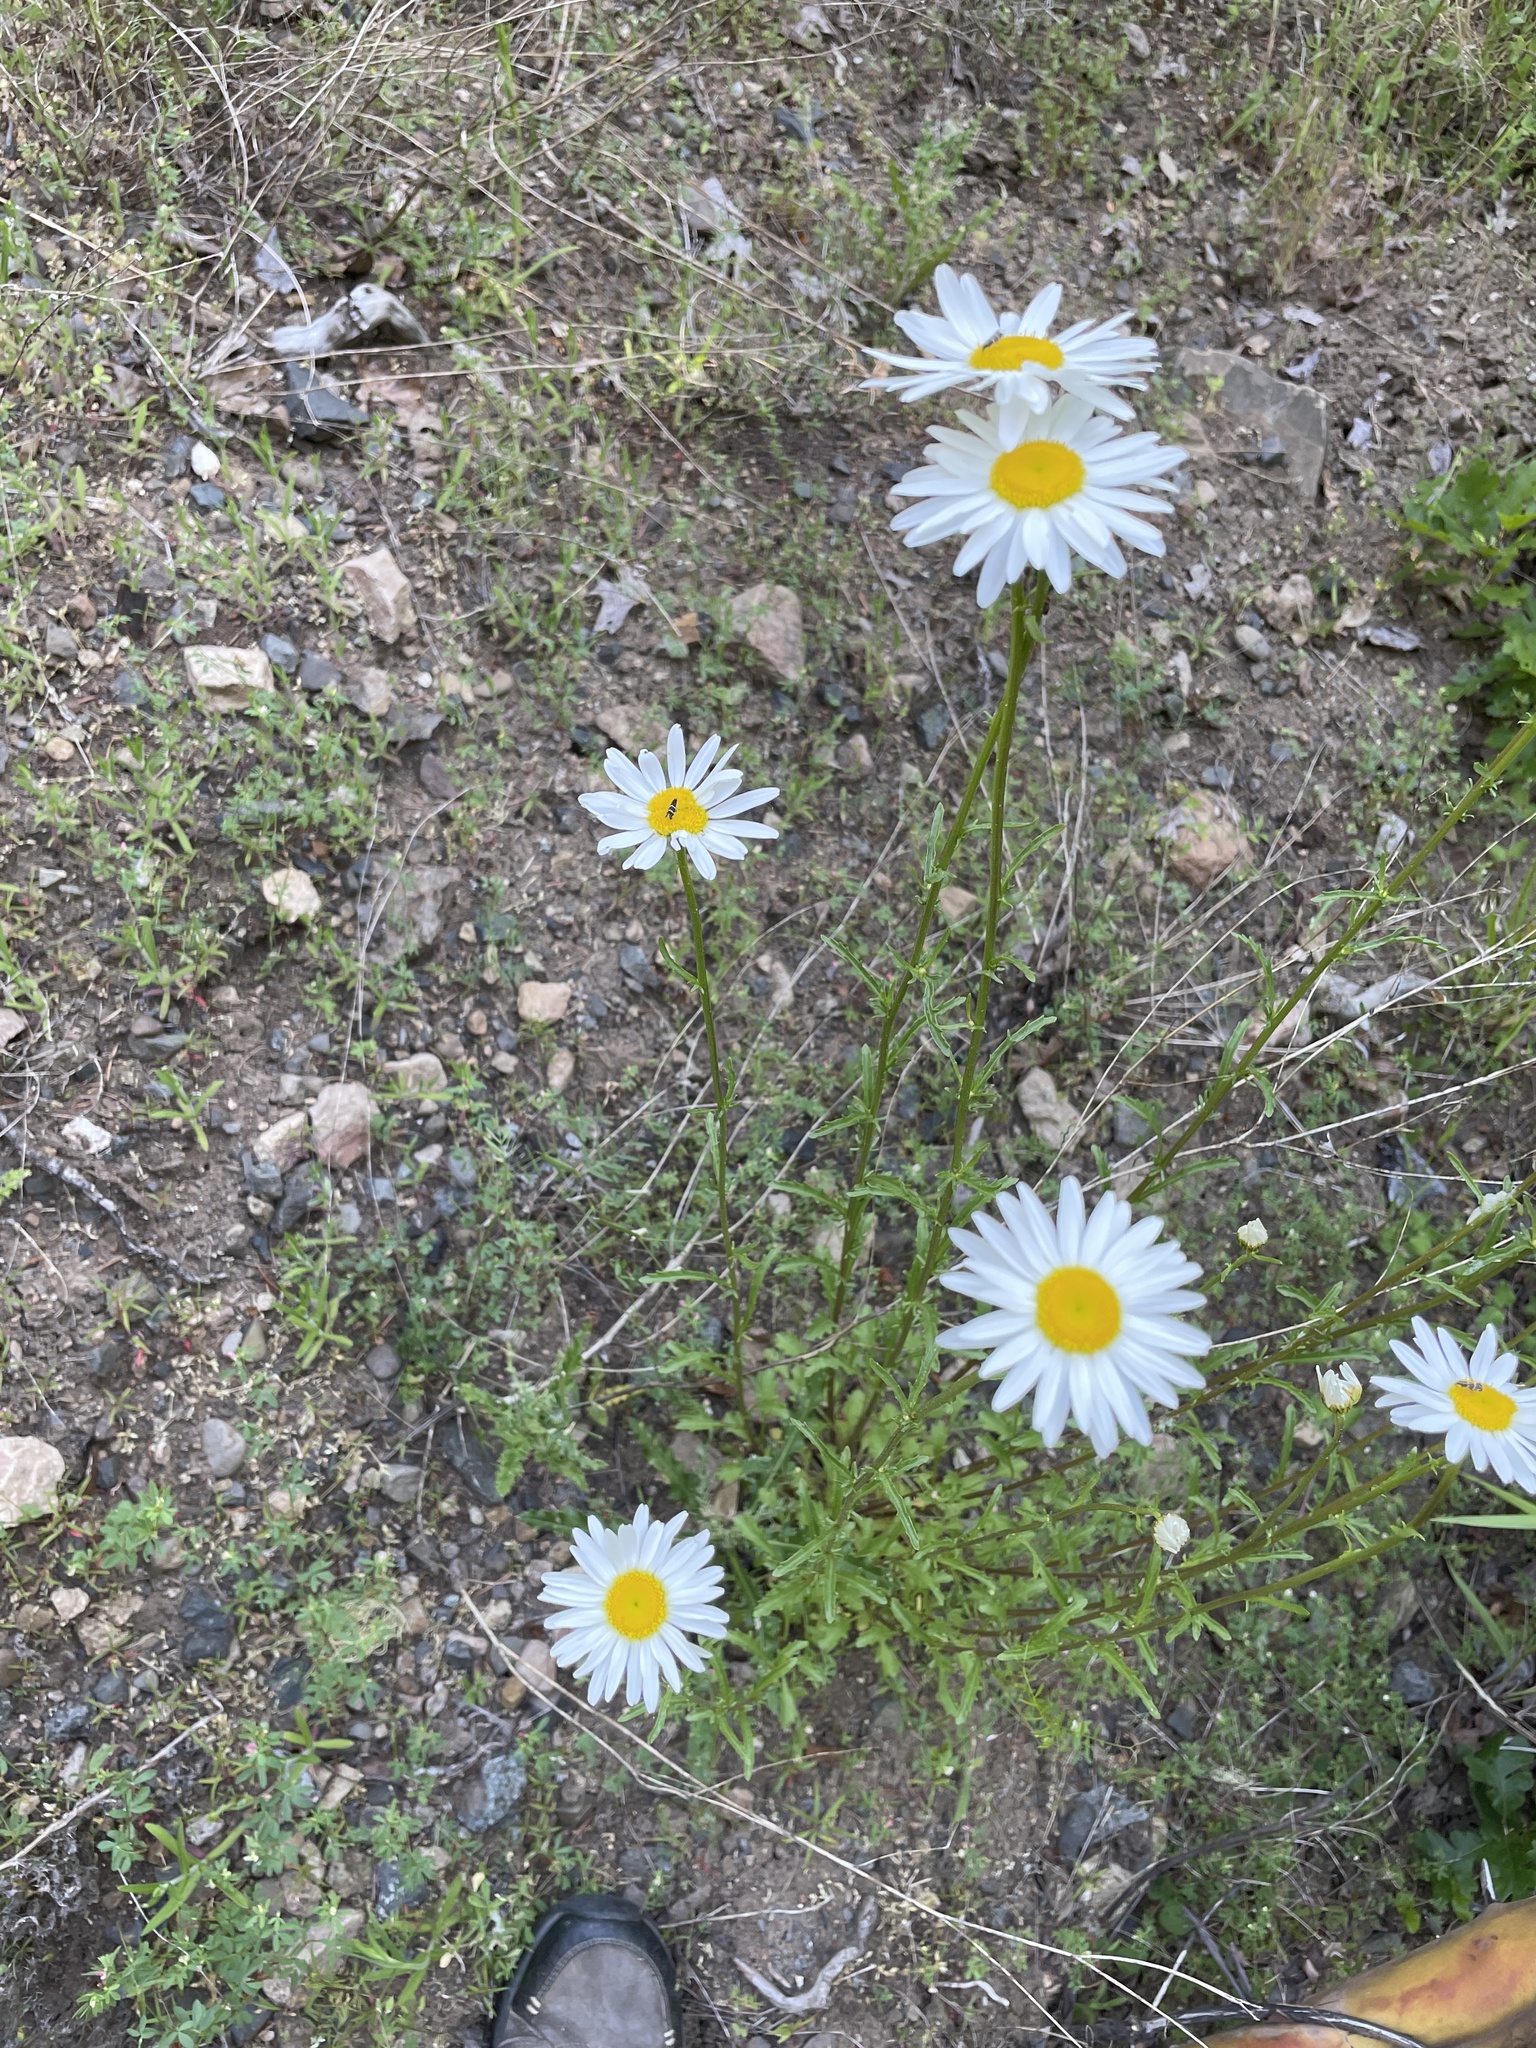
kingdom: Plantae
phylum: Tracheophyta
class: Magnoliopsida
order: Asterales
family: Asteraceae
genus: Leucanthemum
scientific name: Leucanthemum vulgare
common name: Oxeye daisy
